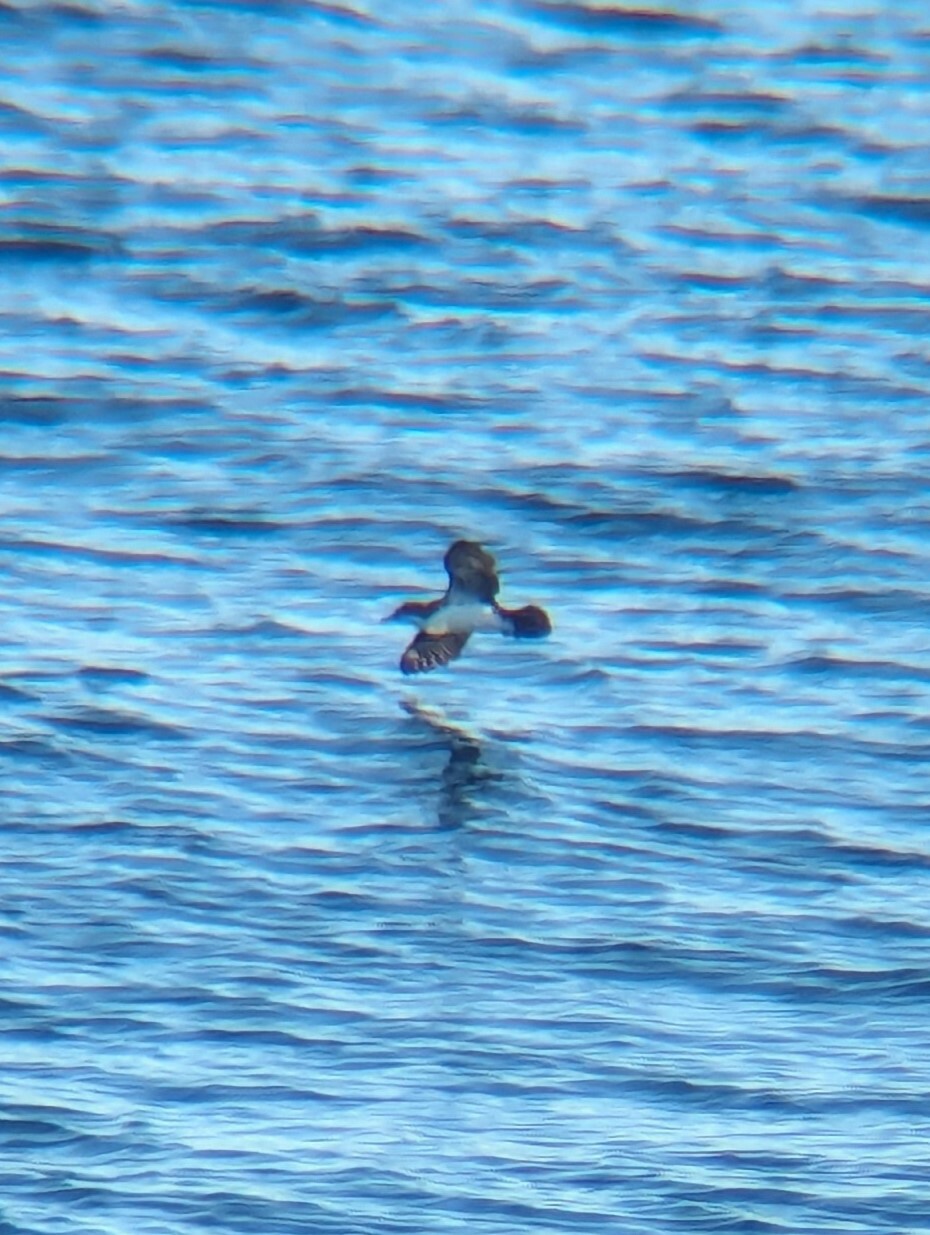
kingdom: Animalia
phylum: Chordata
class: Aves
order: Procellariiformes
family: Procellariidae
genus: Puffinus
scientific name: Puffinus subalaris
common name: Galapagos shearwater
